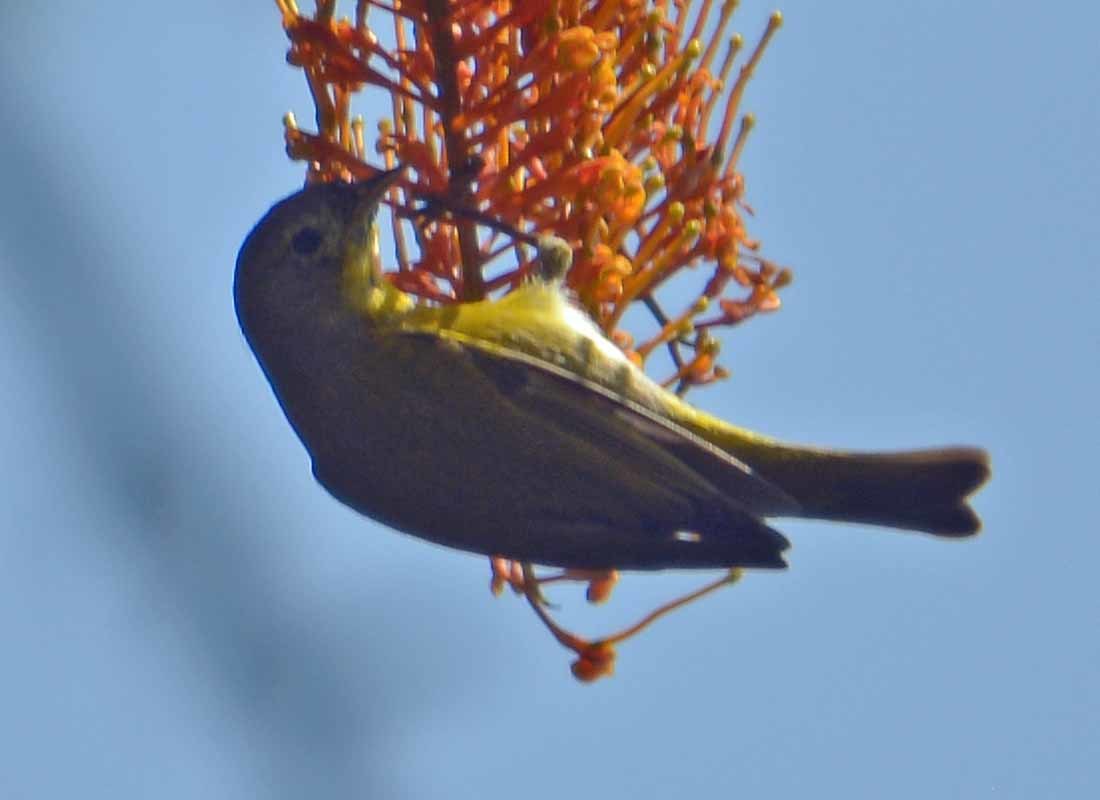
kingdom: Animalia
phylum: Chordata
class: Aves
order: Passeriformes
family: Parulidae
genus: Leiothlypis
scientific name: Leiothlypis ruficapilla
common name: Nashville warbler
